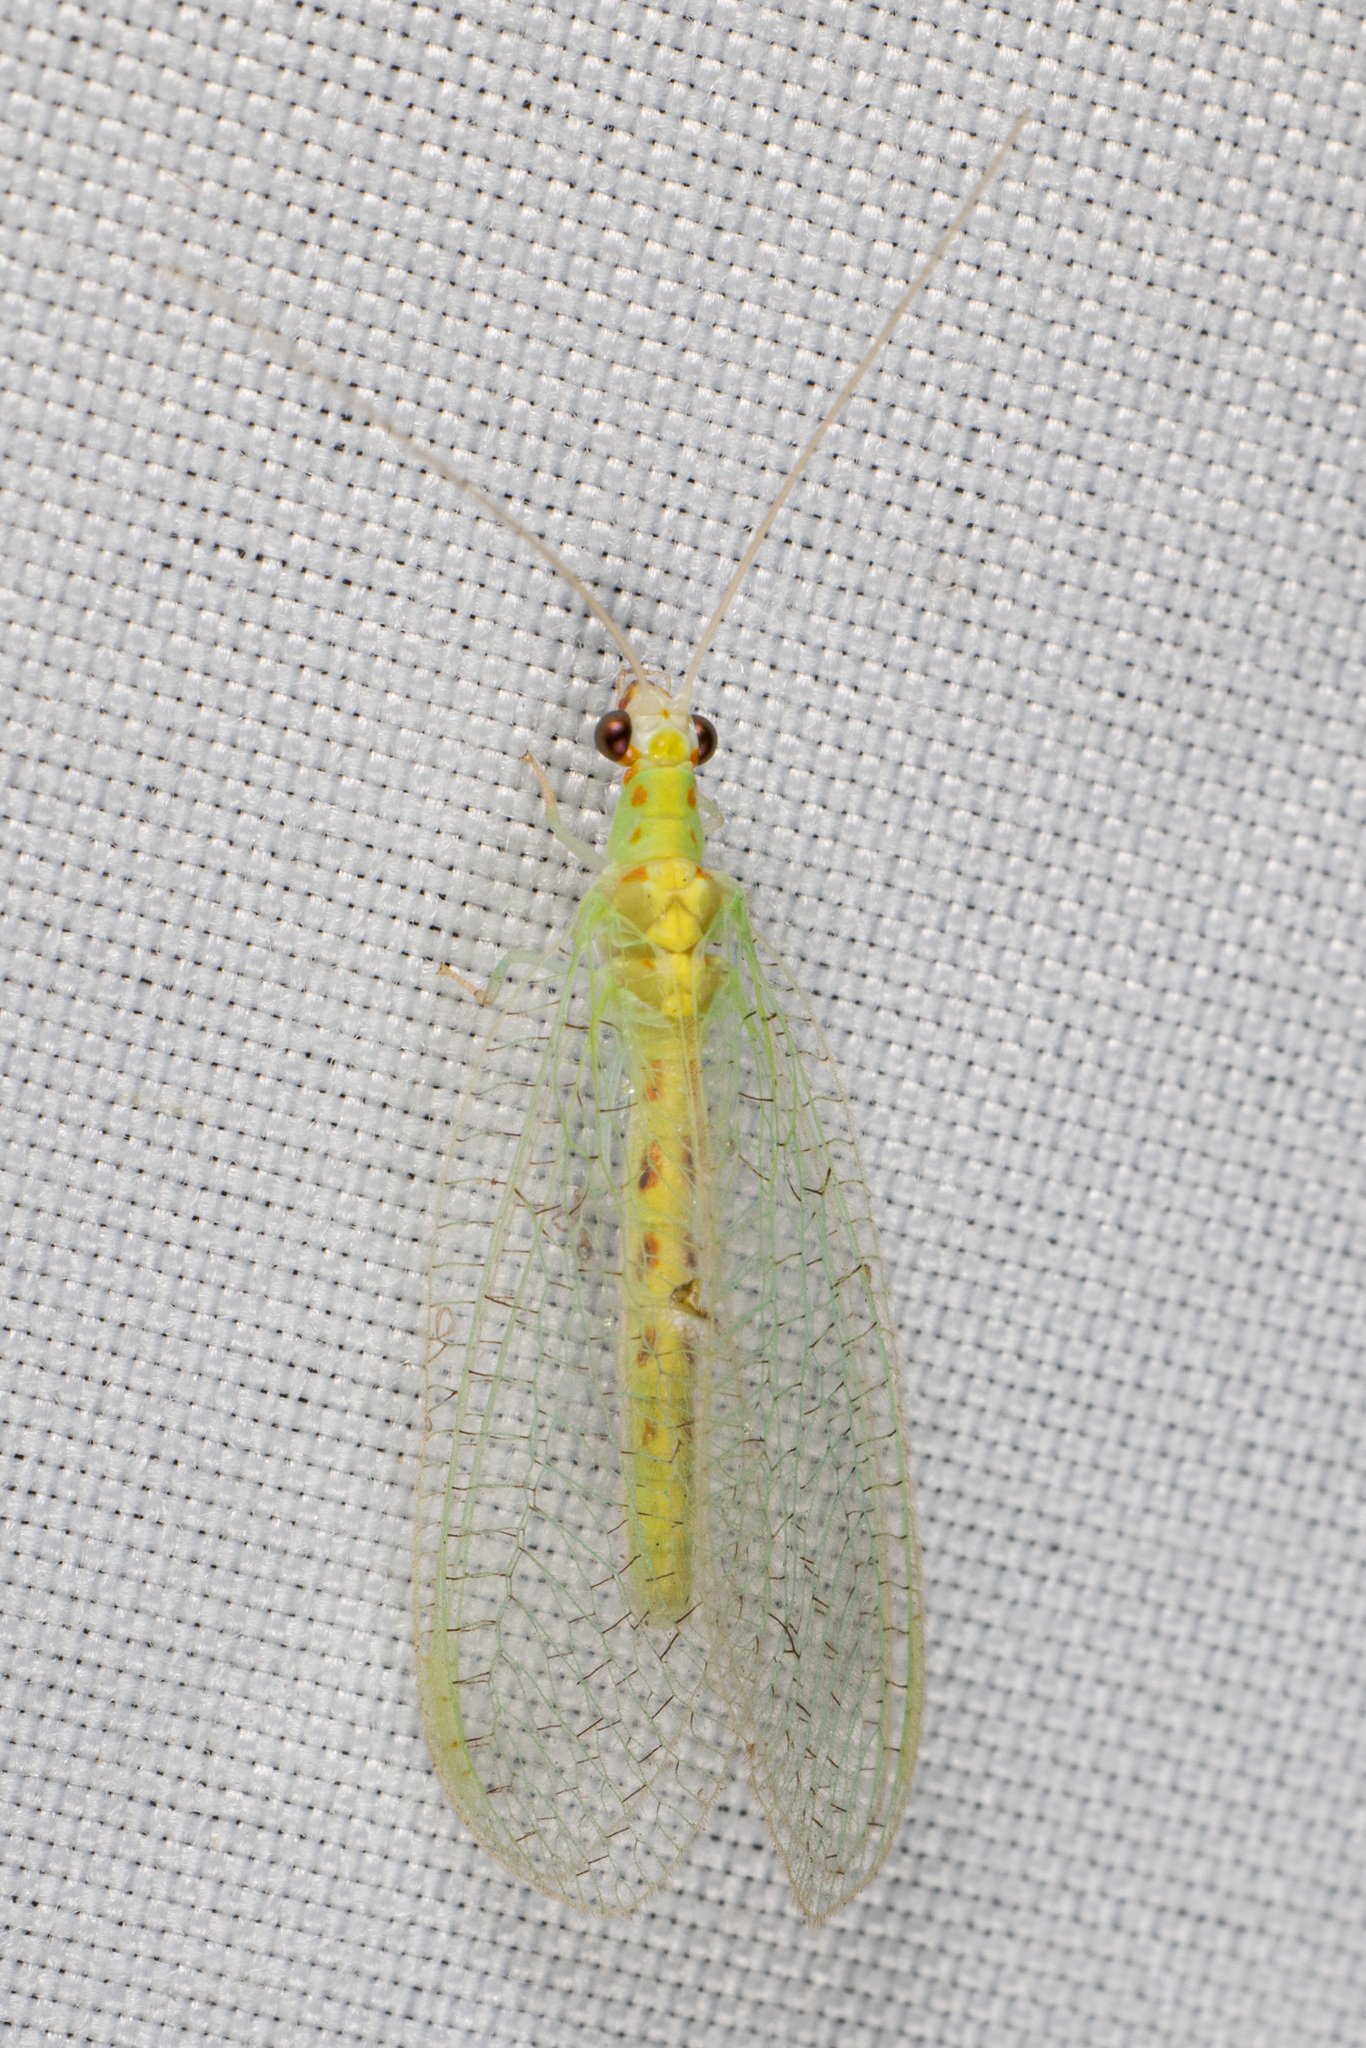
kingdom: Animalia
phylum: Arthropoda
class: Insecta
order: Neuroptera
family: Chrysopidae
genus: Chrysopa
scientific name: Chrysopa quadripunctata
